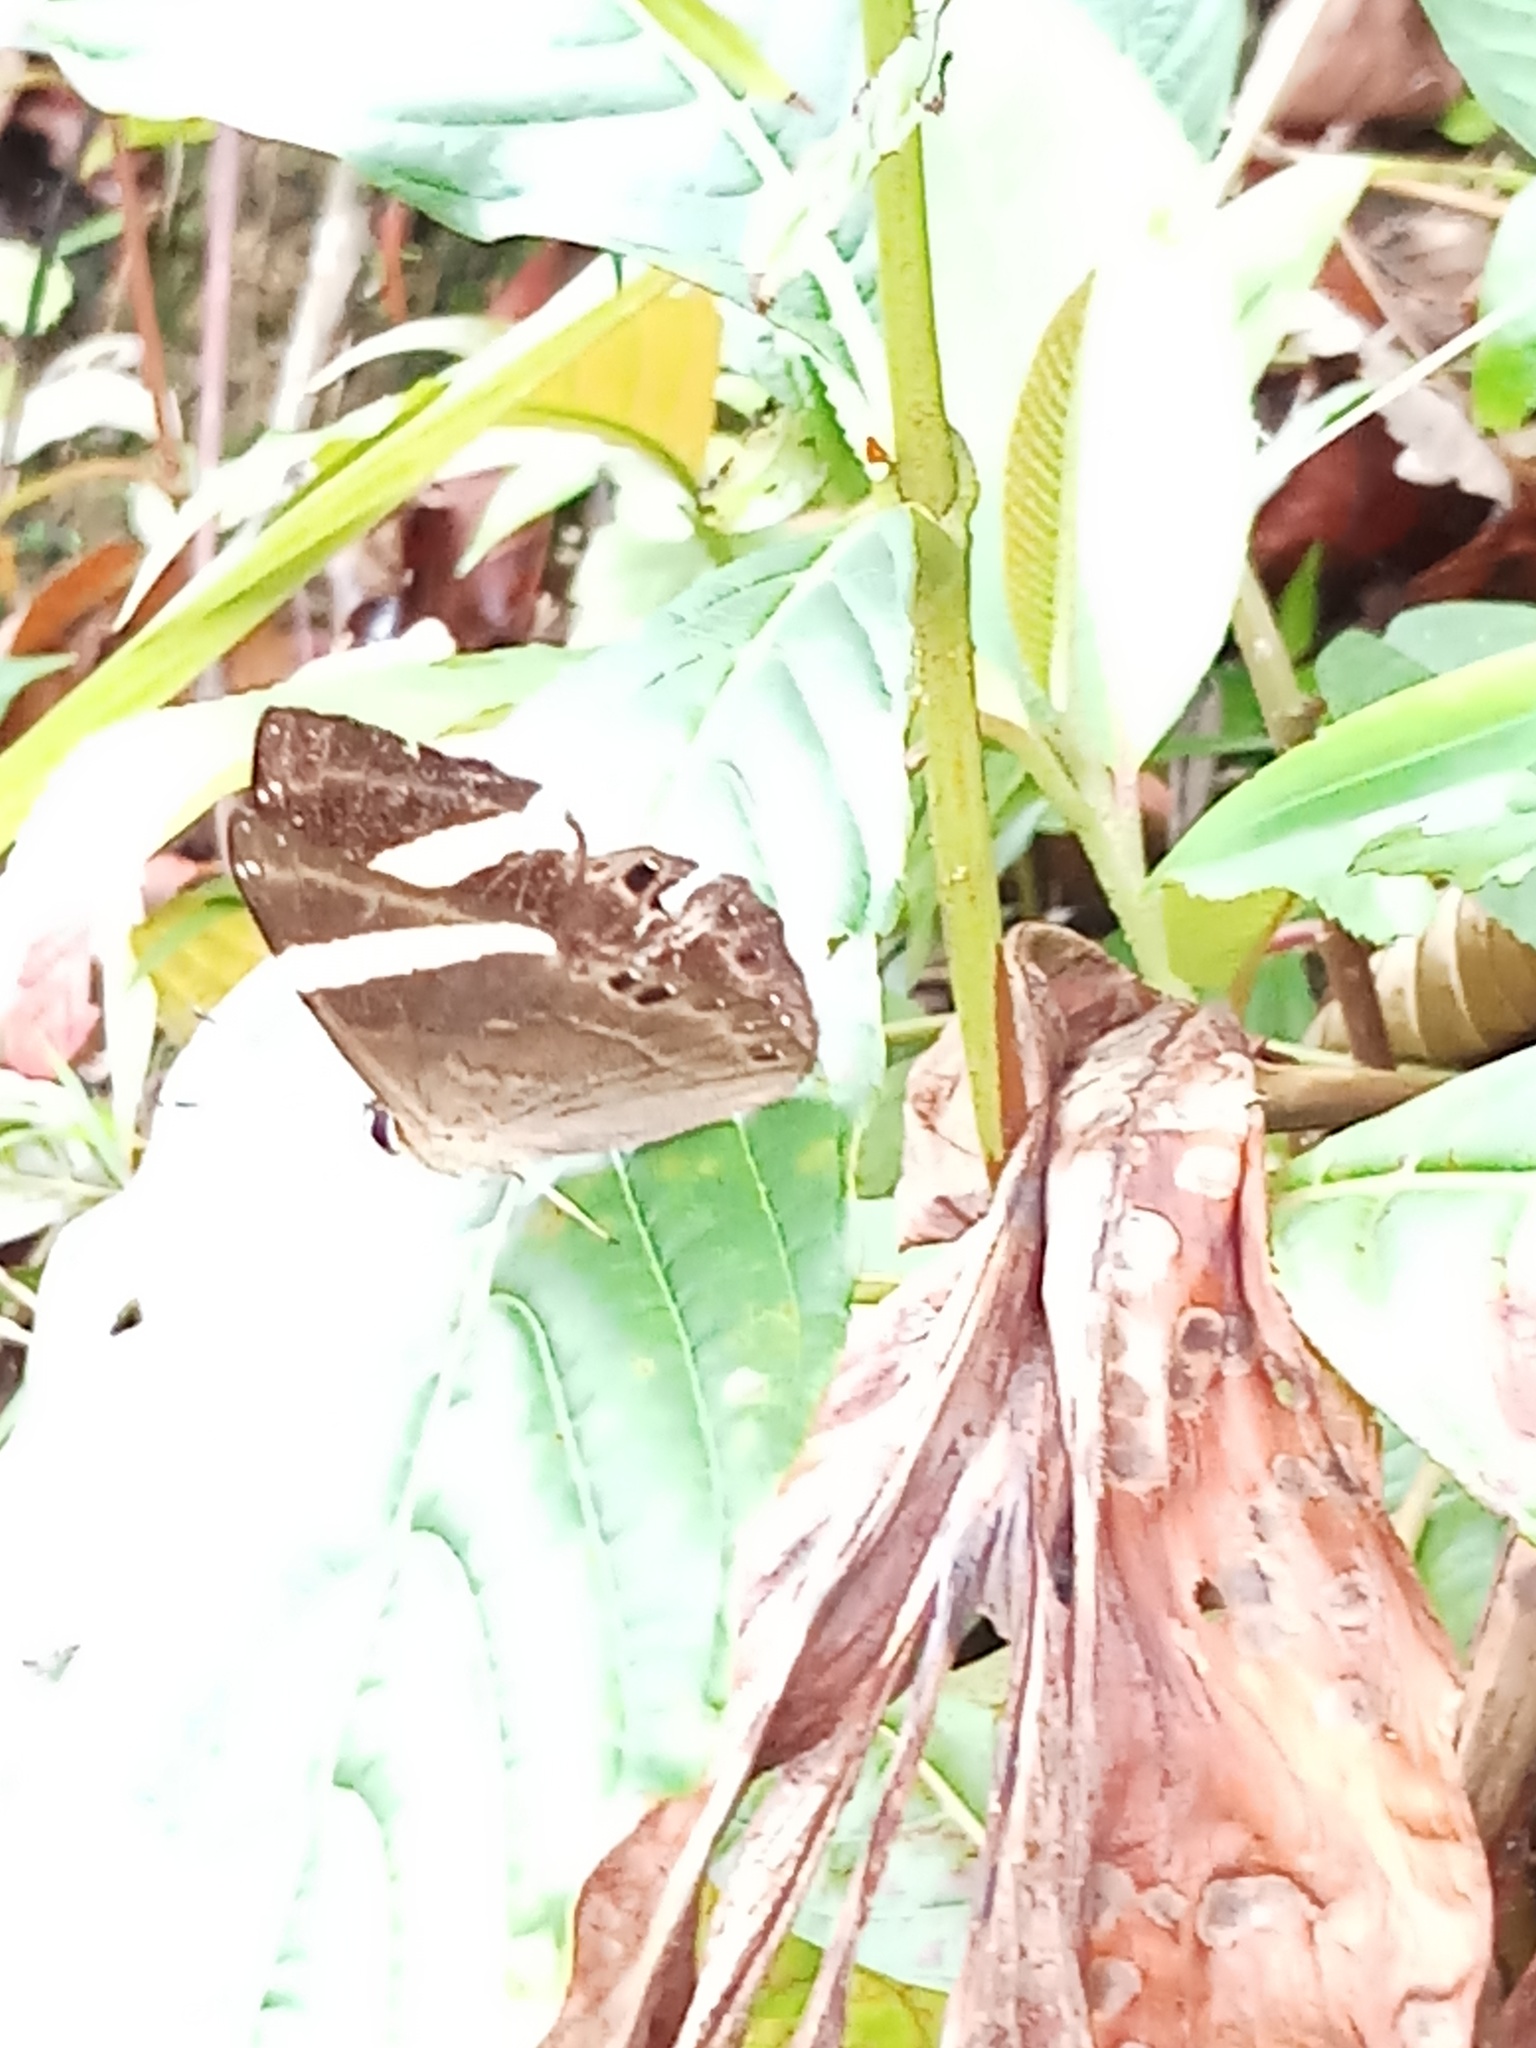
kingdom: Animalia
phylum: Arthropoda
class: Insecta
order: Lepidoptera
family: Lycaenidae
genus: Abisara
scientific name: Abisara fylla
